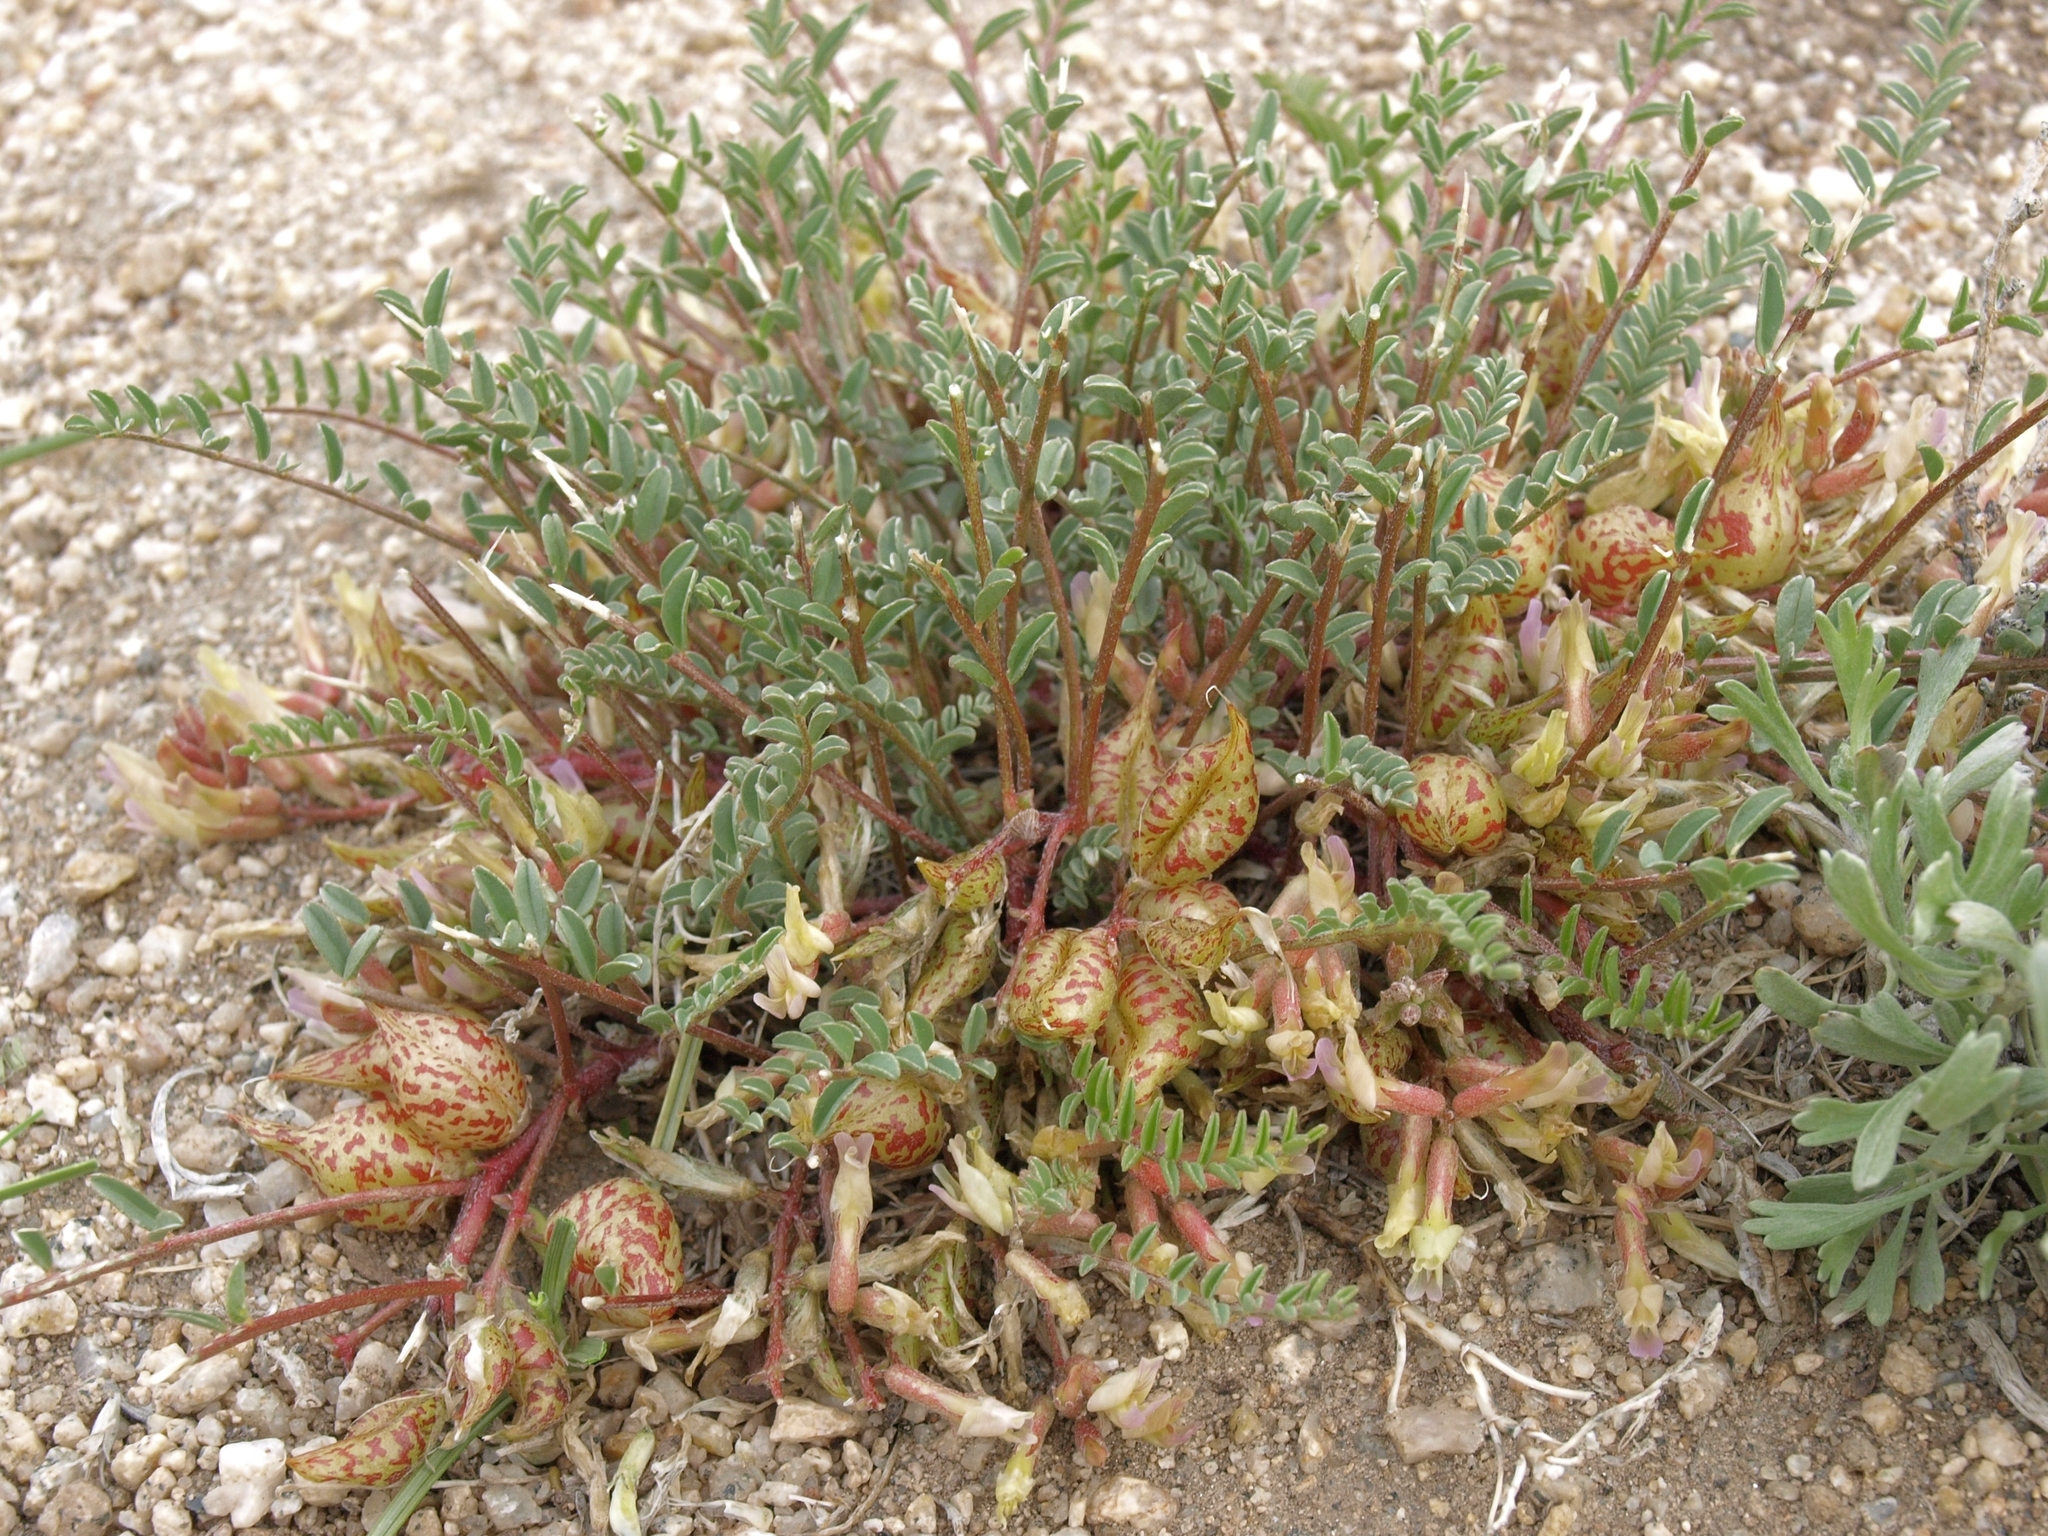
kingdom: Plantae
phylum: Tracheophyta
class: Magnoliopsida
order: Fabales
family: Fabaceae
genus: Astragalus
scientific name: Astragalus lentiginosus
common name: Freckled milkvetch
